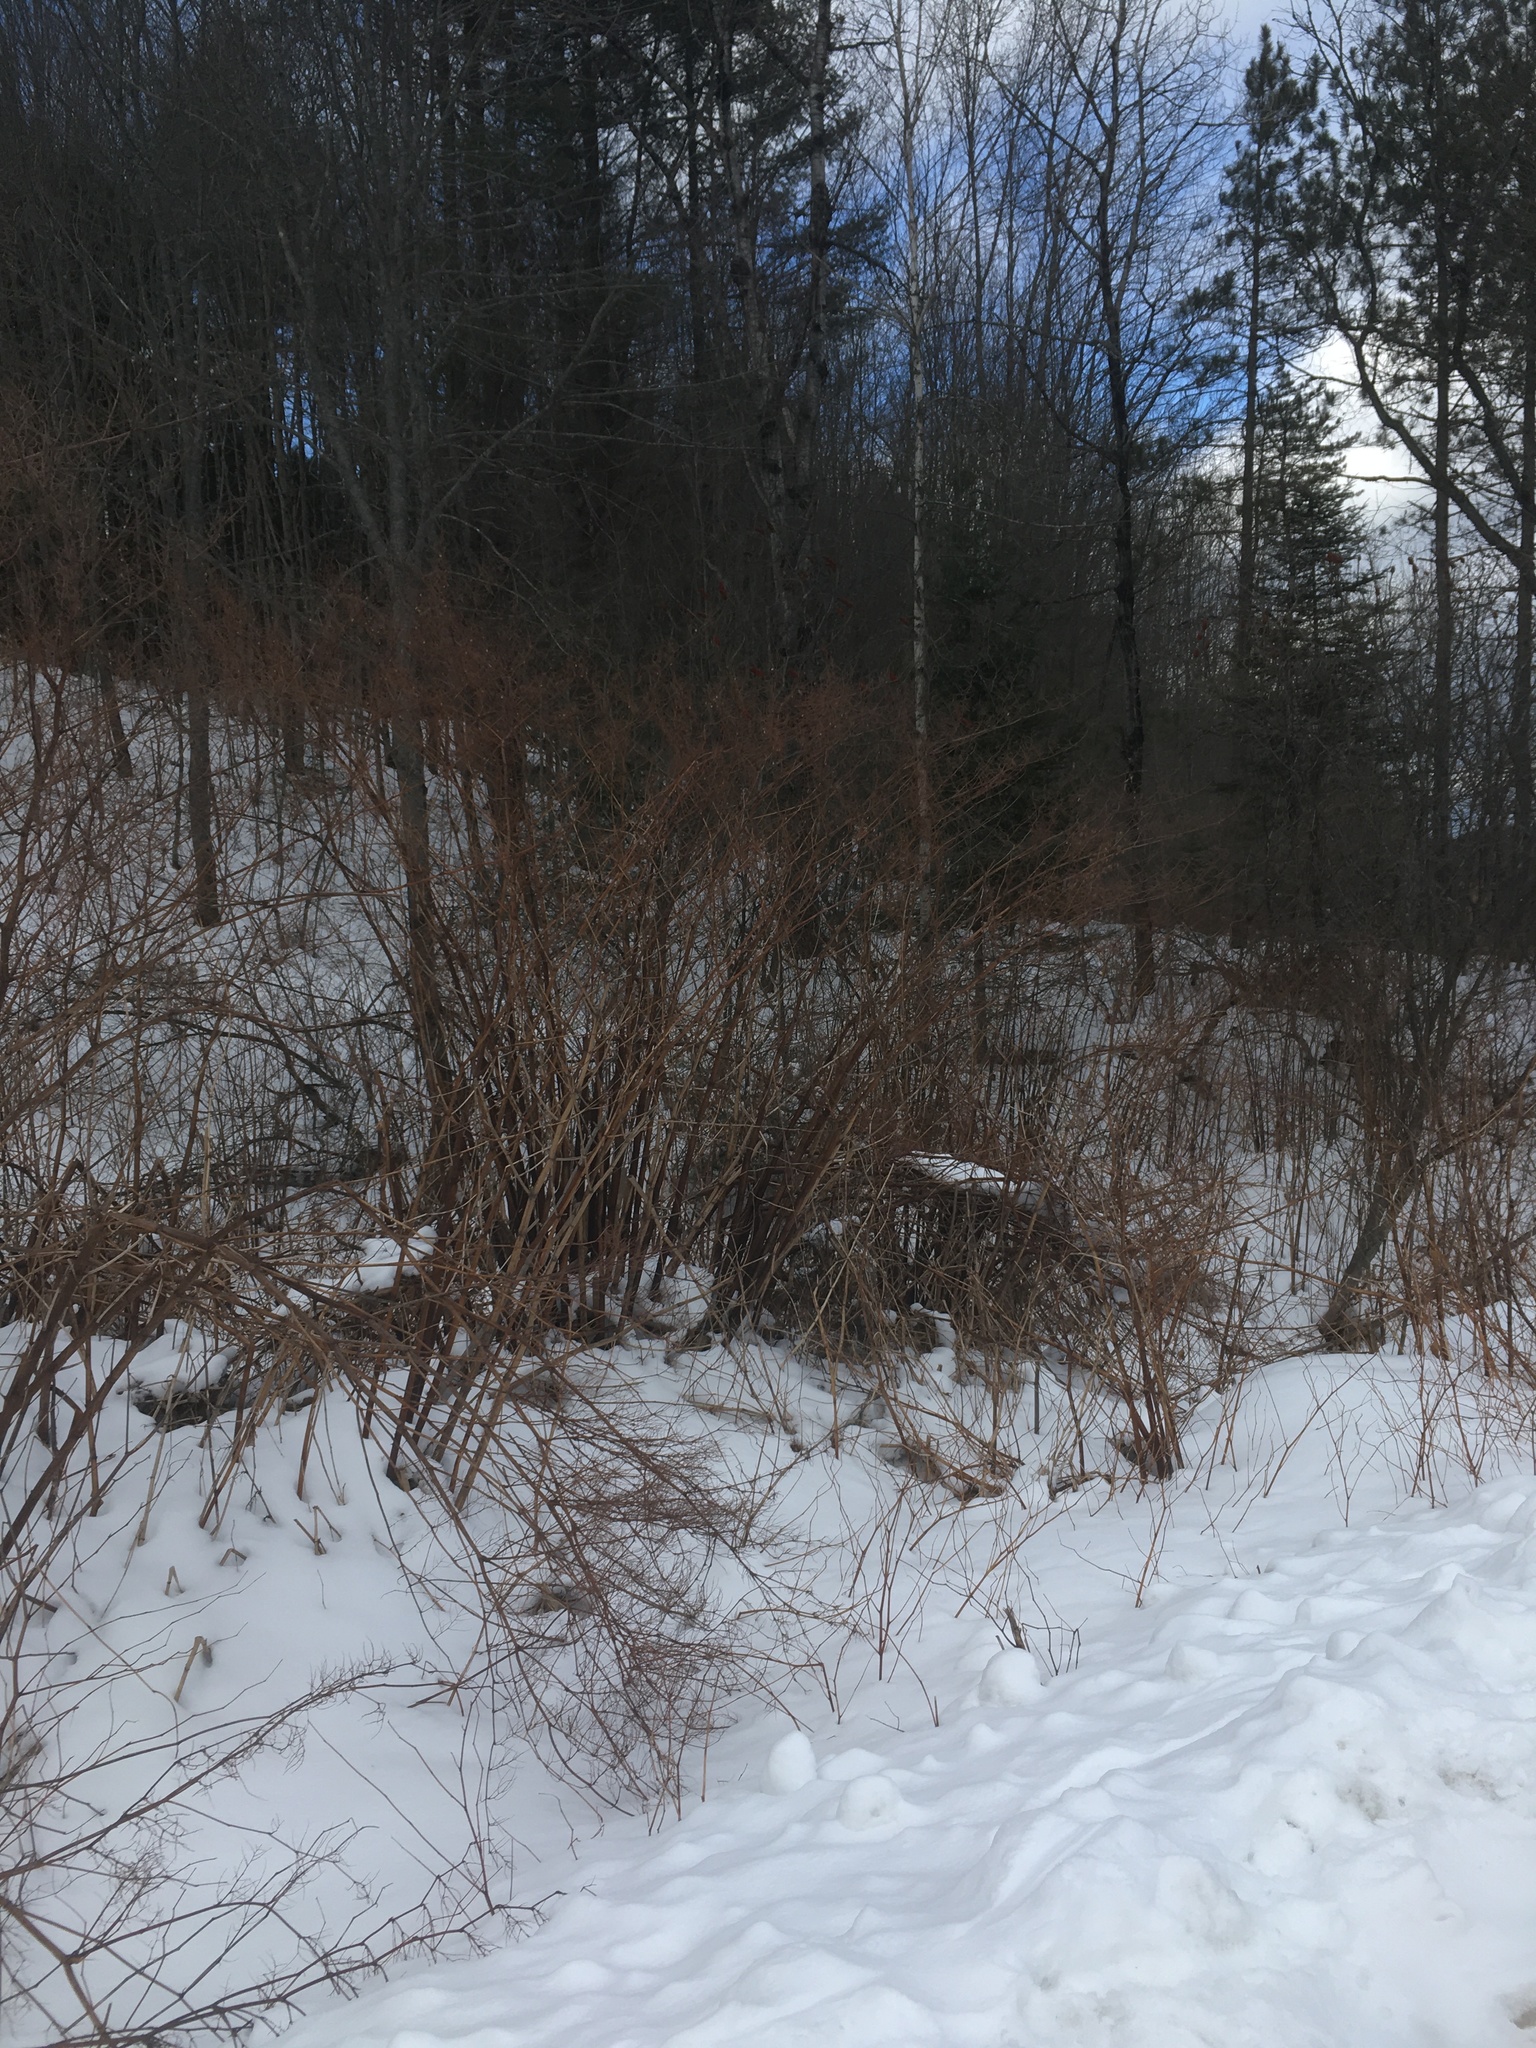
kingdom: Plantae
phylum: Tracheophyta
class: Magnoliopsida
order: Caryophyllales
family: Polygonaceae
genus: Reynoutria
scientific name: Reynoutria japonica
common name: Japanese knotweed
